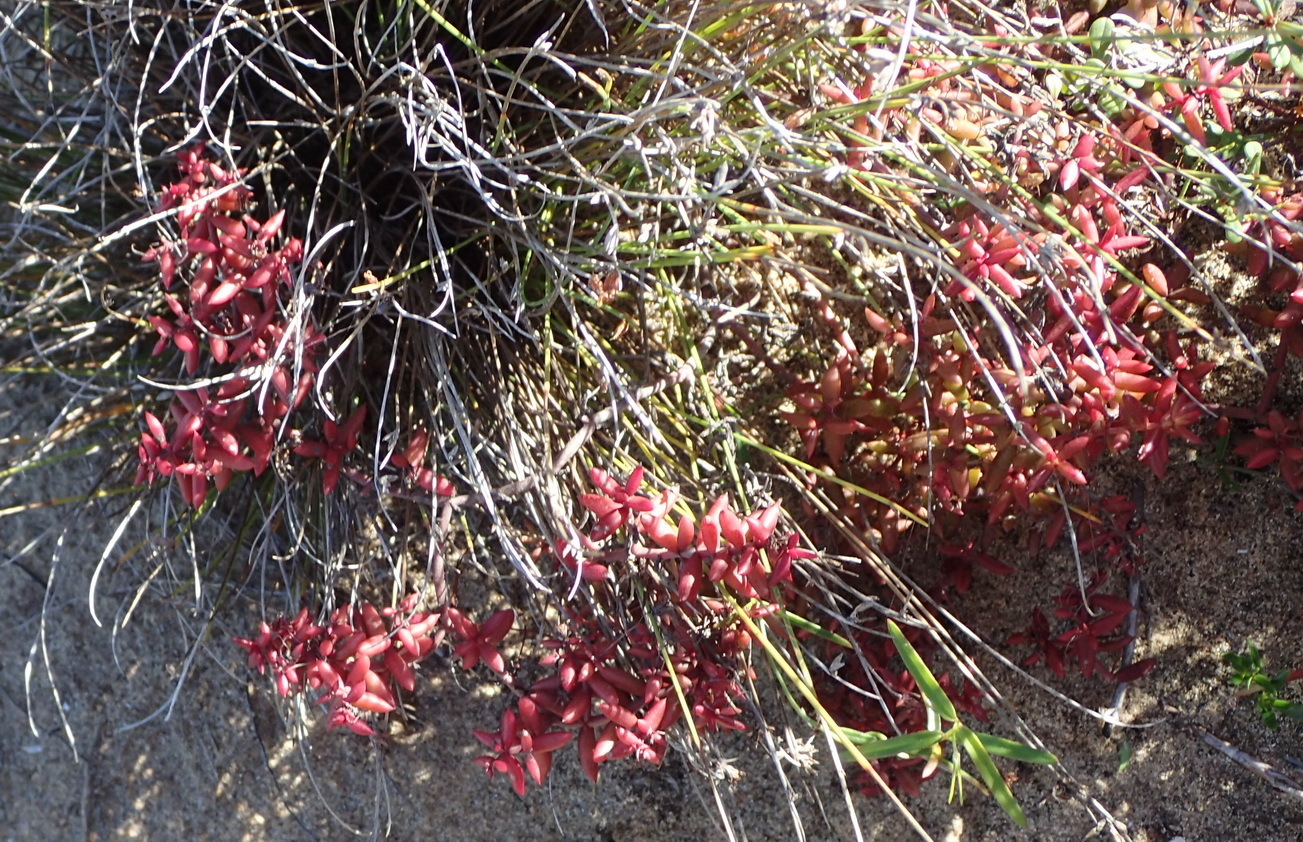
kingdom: Plantae
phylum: Tracheophyta
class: Magnoliopsida
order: Saxifragales
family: Crassulaceae
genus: Crassula
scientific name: Crassula expansa
